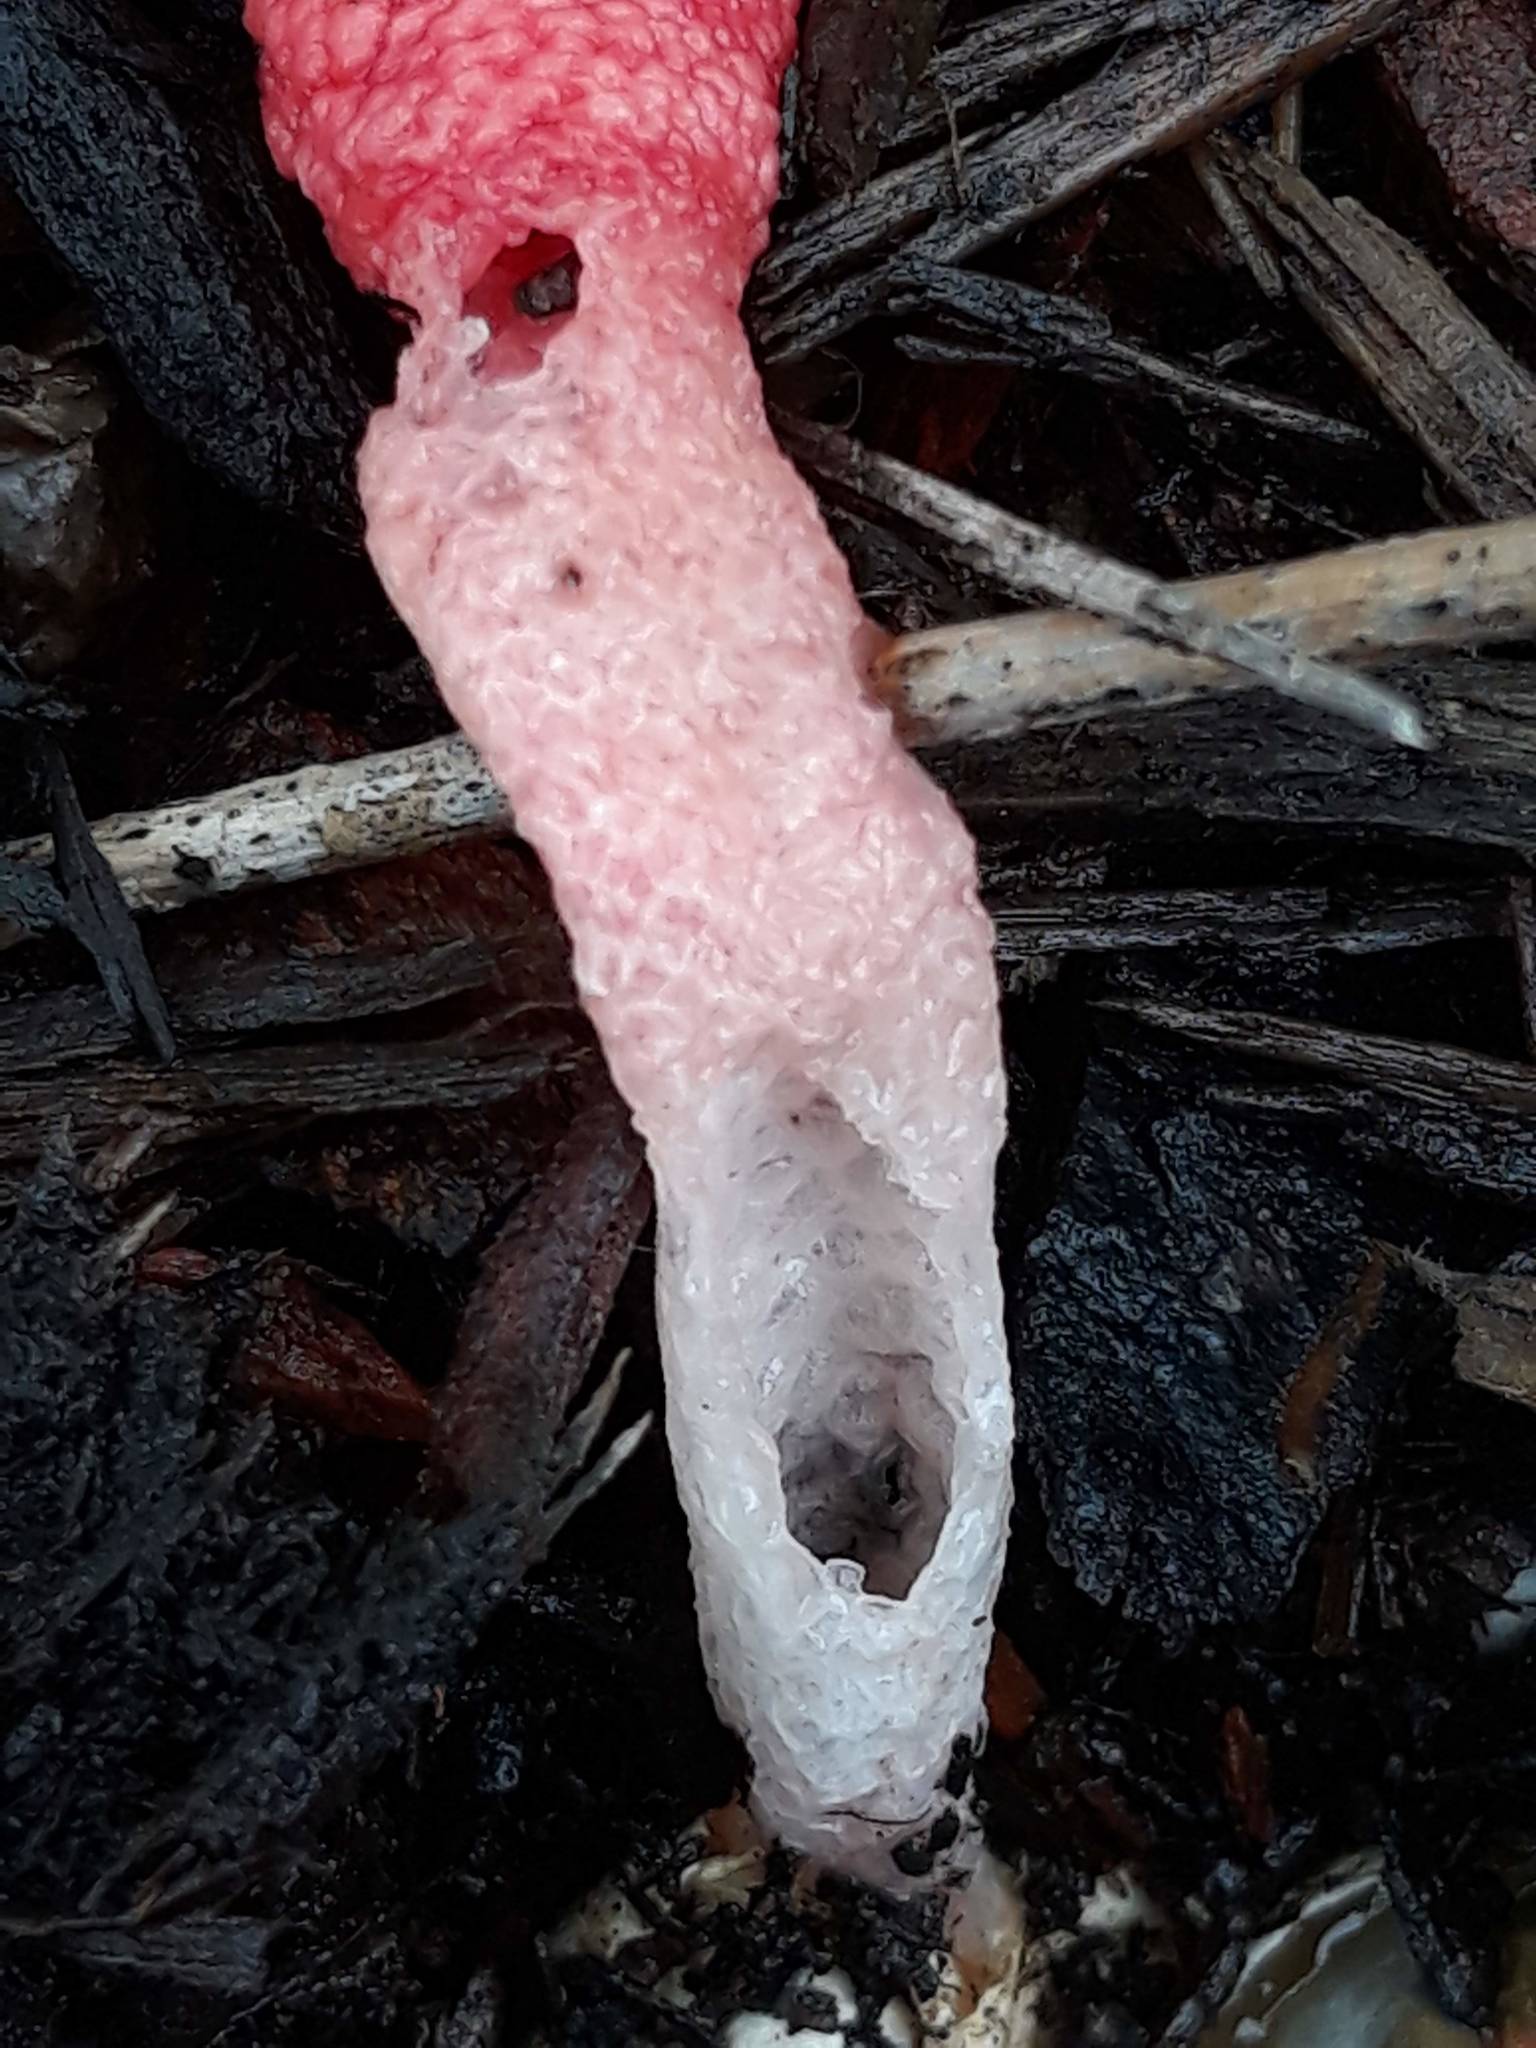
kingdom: Fungi
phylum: Basidiomycota
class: Agaricomycetes
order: Phallales
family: Phallaceae
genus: Mutinus
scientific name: Mutinus elegans
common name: Devil's dipstick
